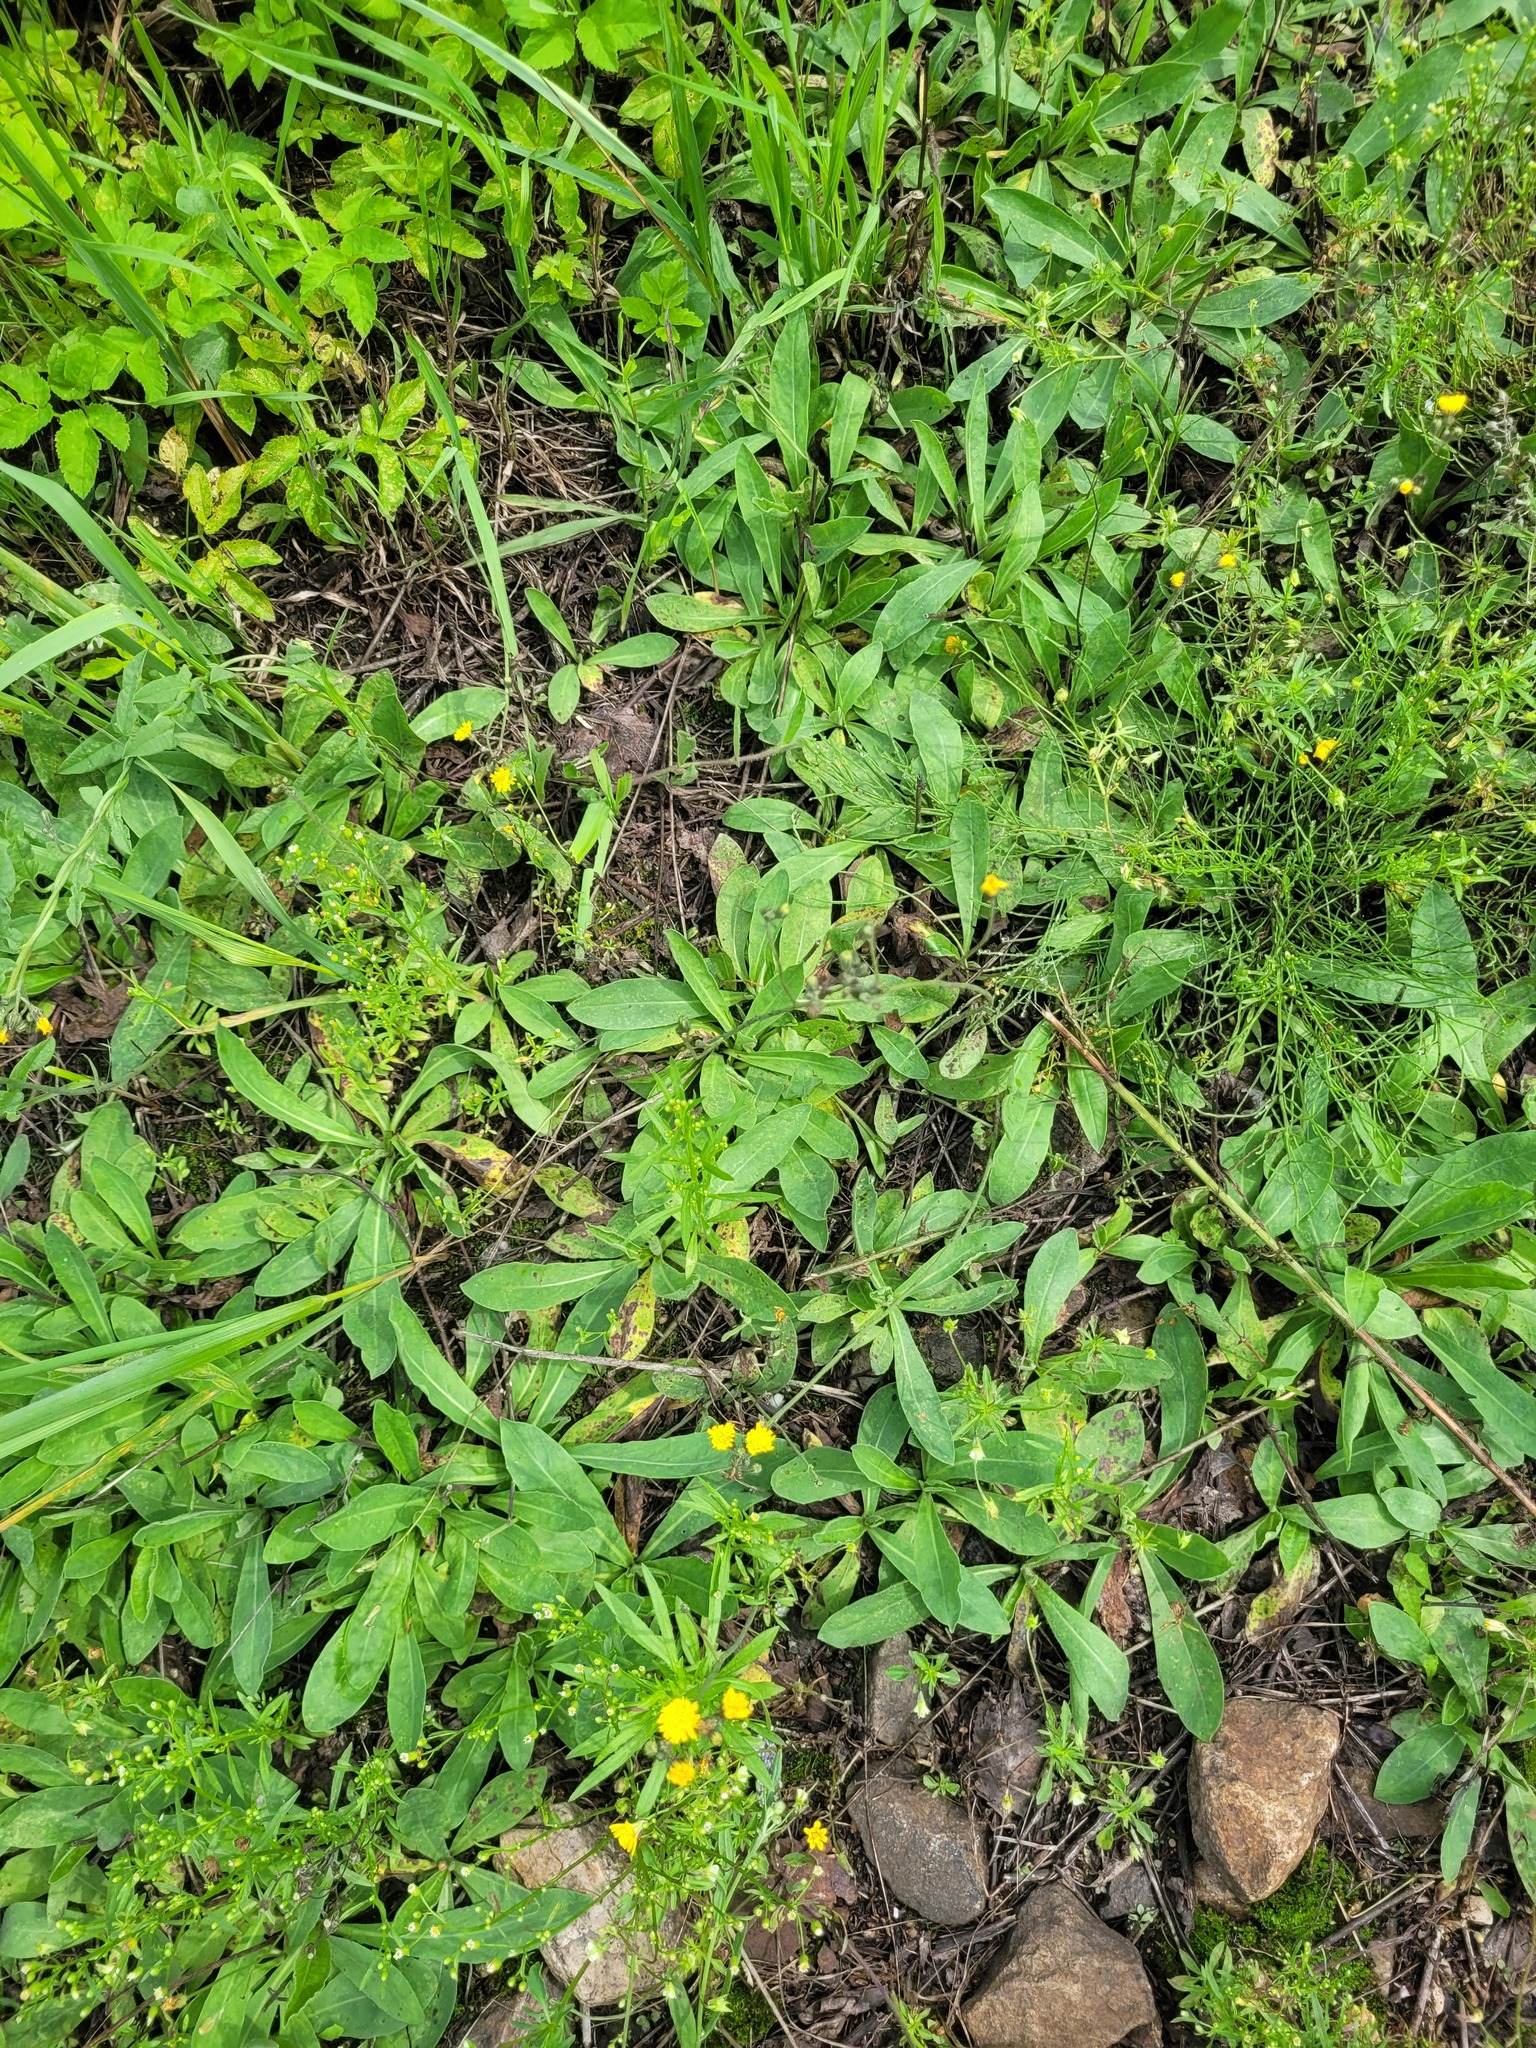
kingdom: Plantae
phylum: Tracheophyta
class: Magnoliopsida
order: Asterales
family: Asteraceae
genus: Pilosella
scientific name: Pilosella
